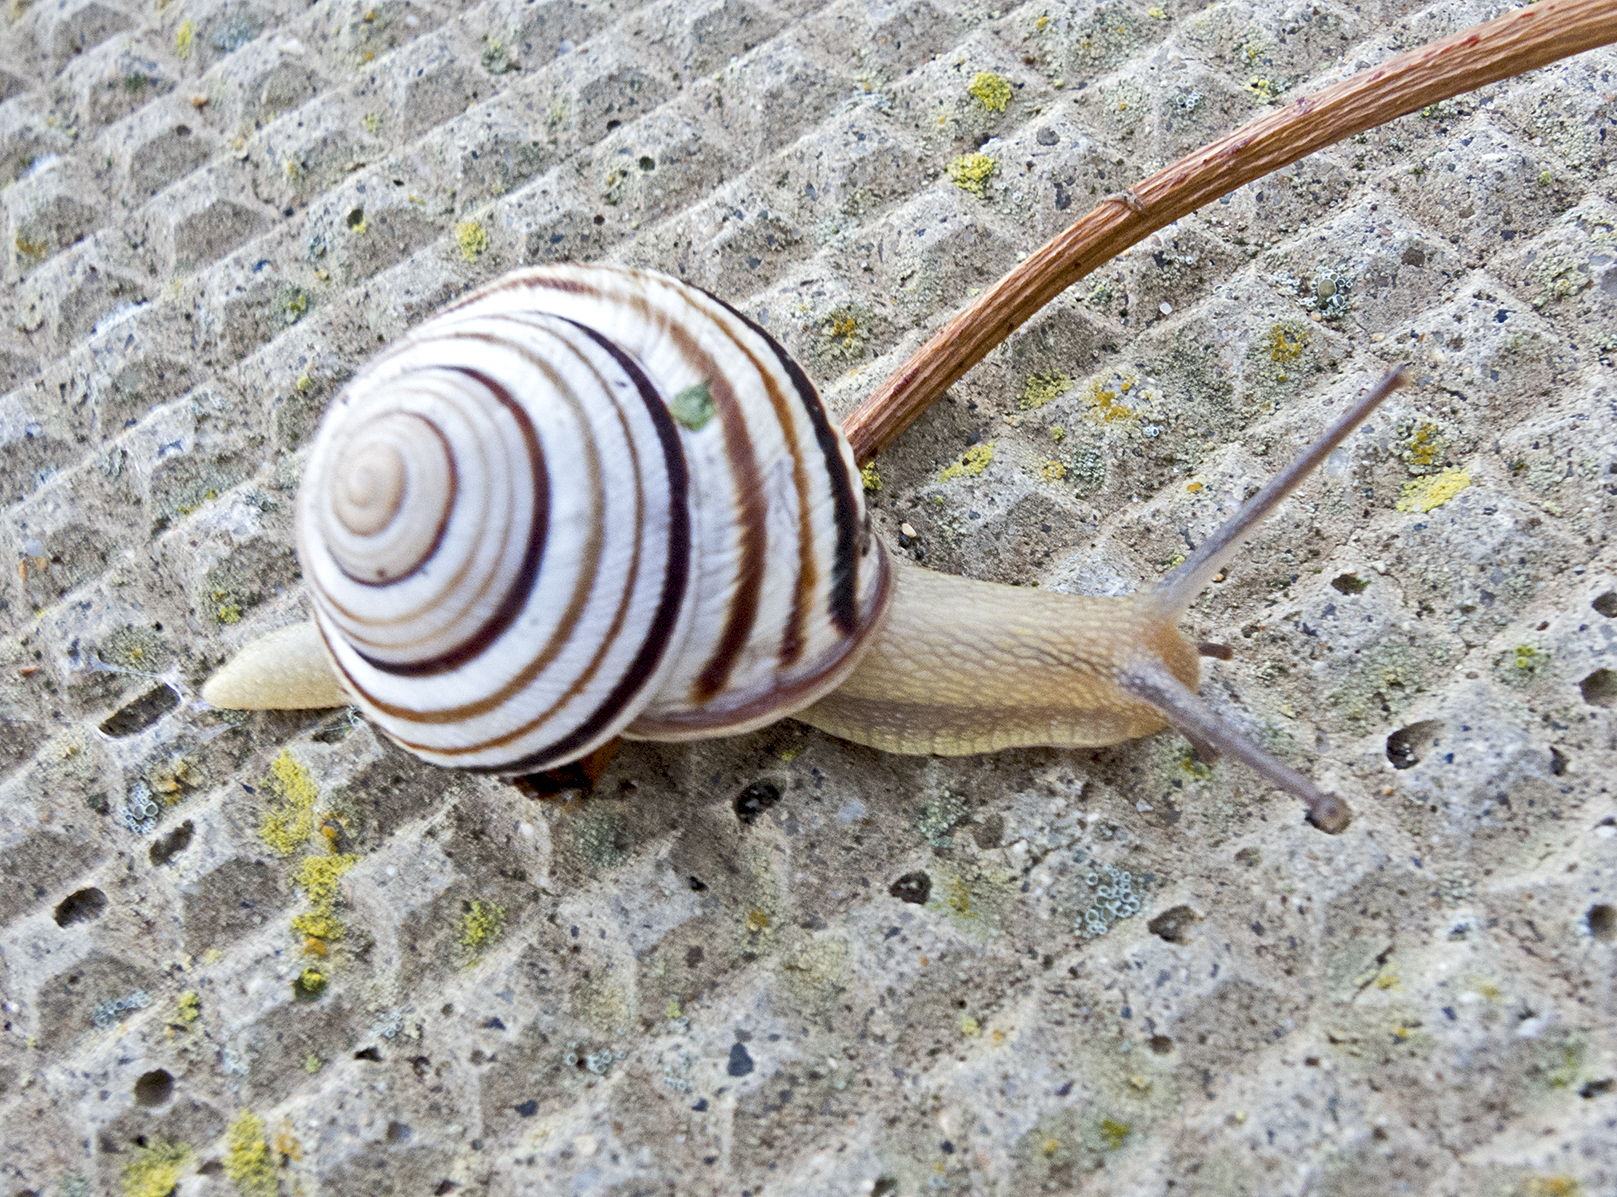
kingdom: Animalia
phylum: Mollusca
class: Gastropoda
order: Stylommatophora
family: Helicidae
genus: Caucasotachea
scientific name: Caucasotachea vindobonensis
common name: European helicid land snail
